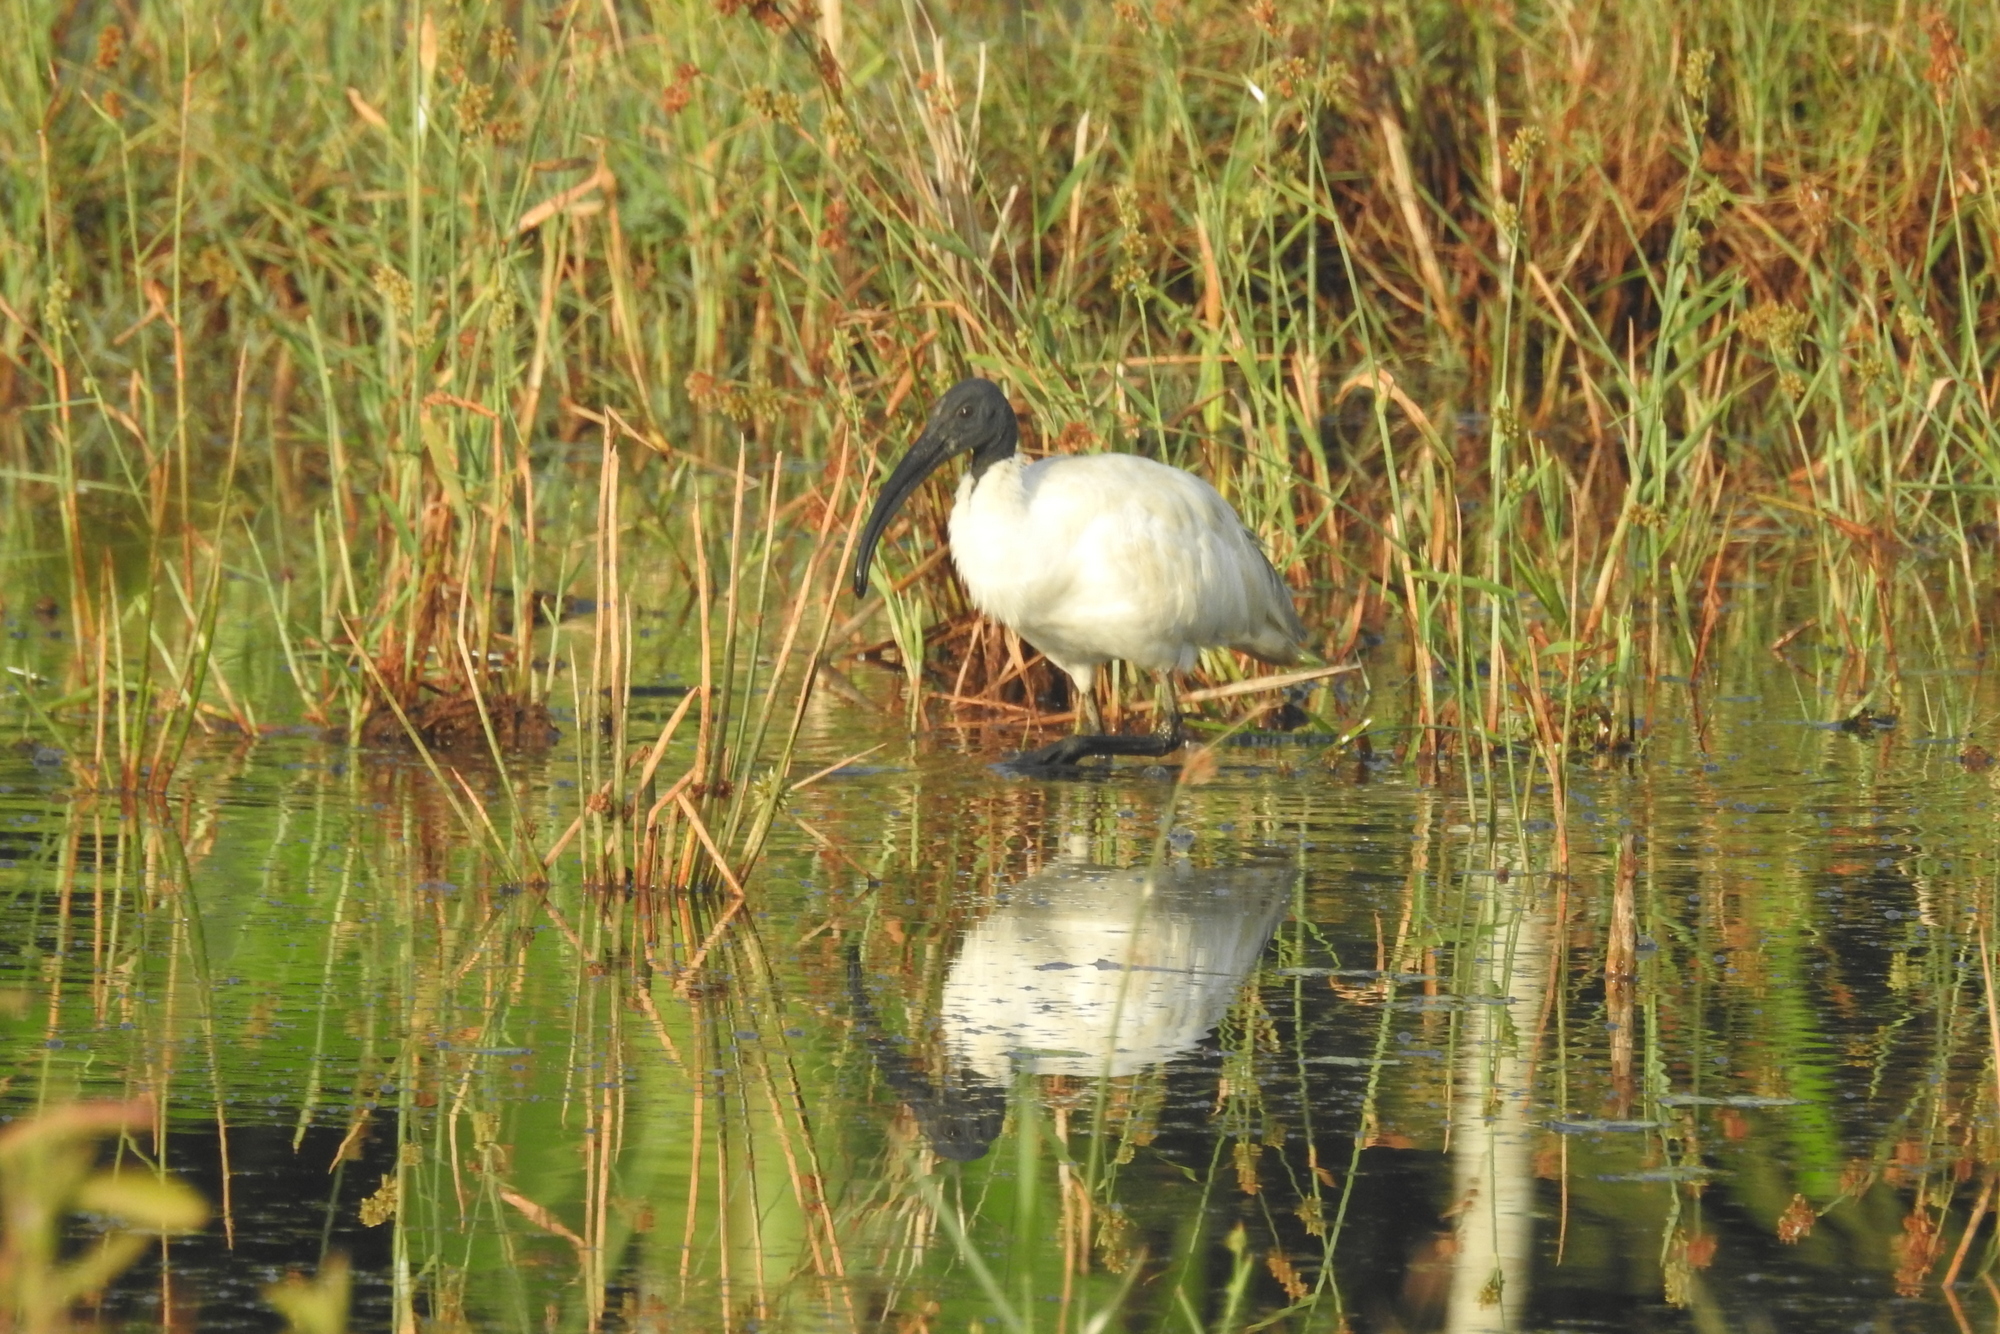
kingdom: Animalia
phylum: Chordata
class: Aves
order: Pelecaniformes
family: Threskiornithidae
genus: Threskiornis
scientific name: Threskiornis melanocephalus
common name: Black-headed ibis
